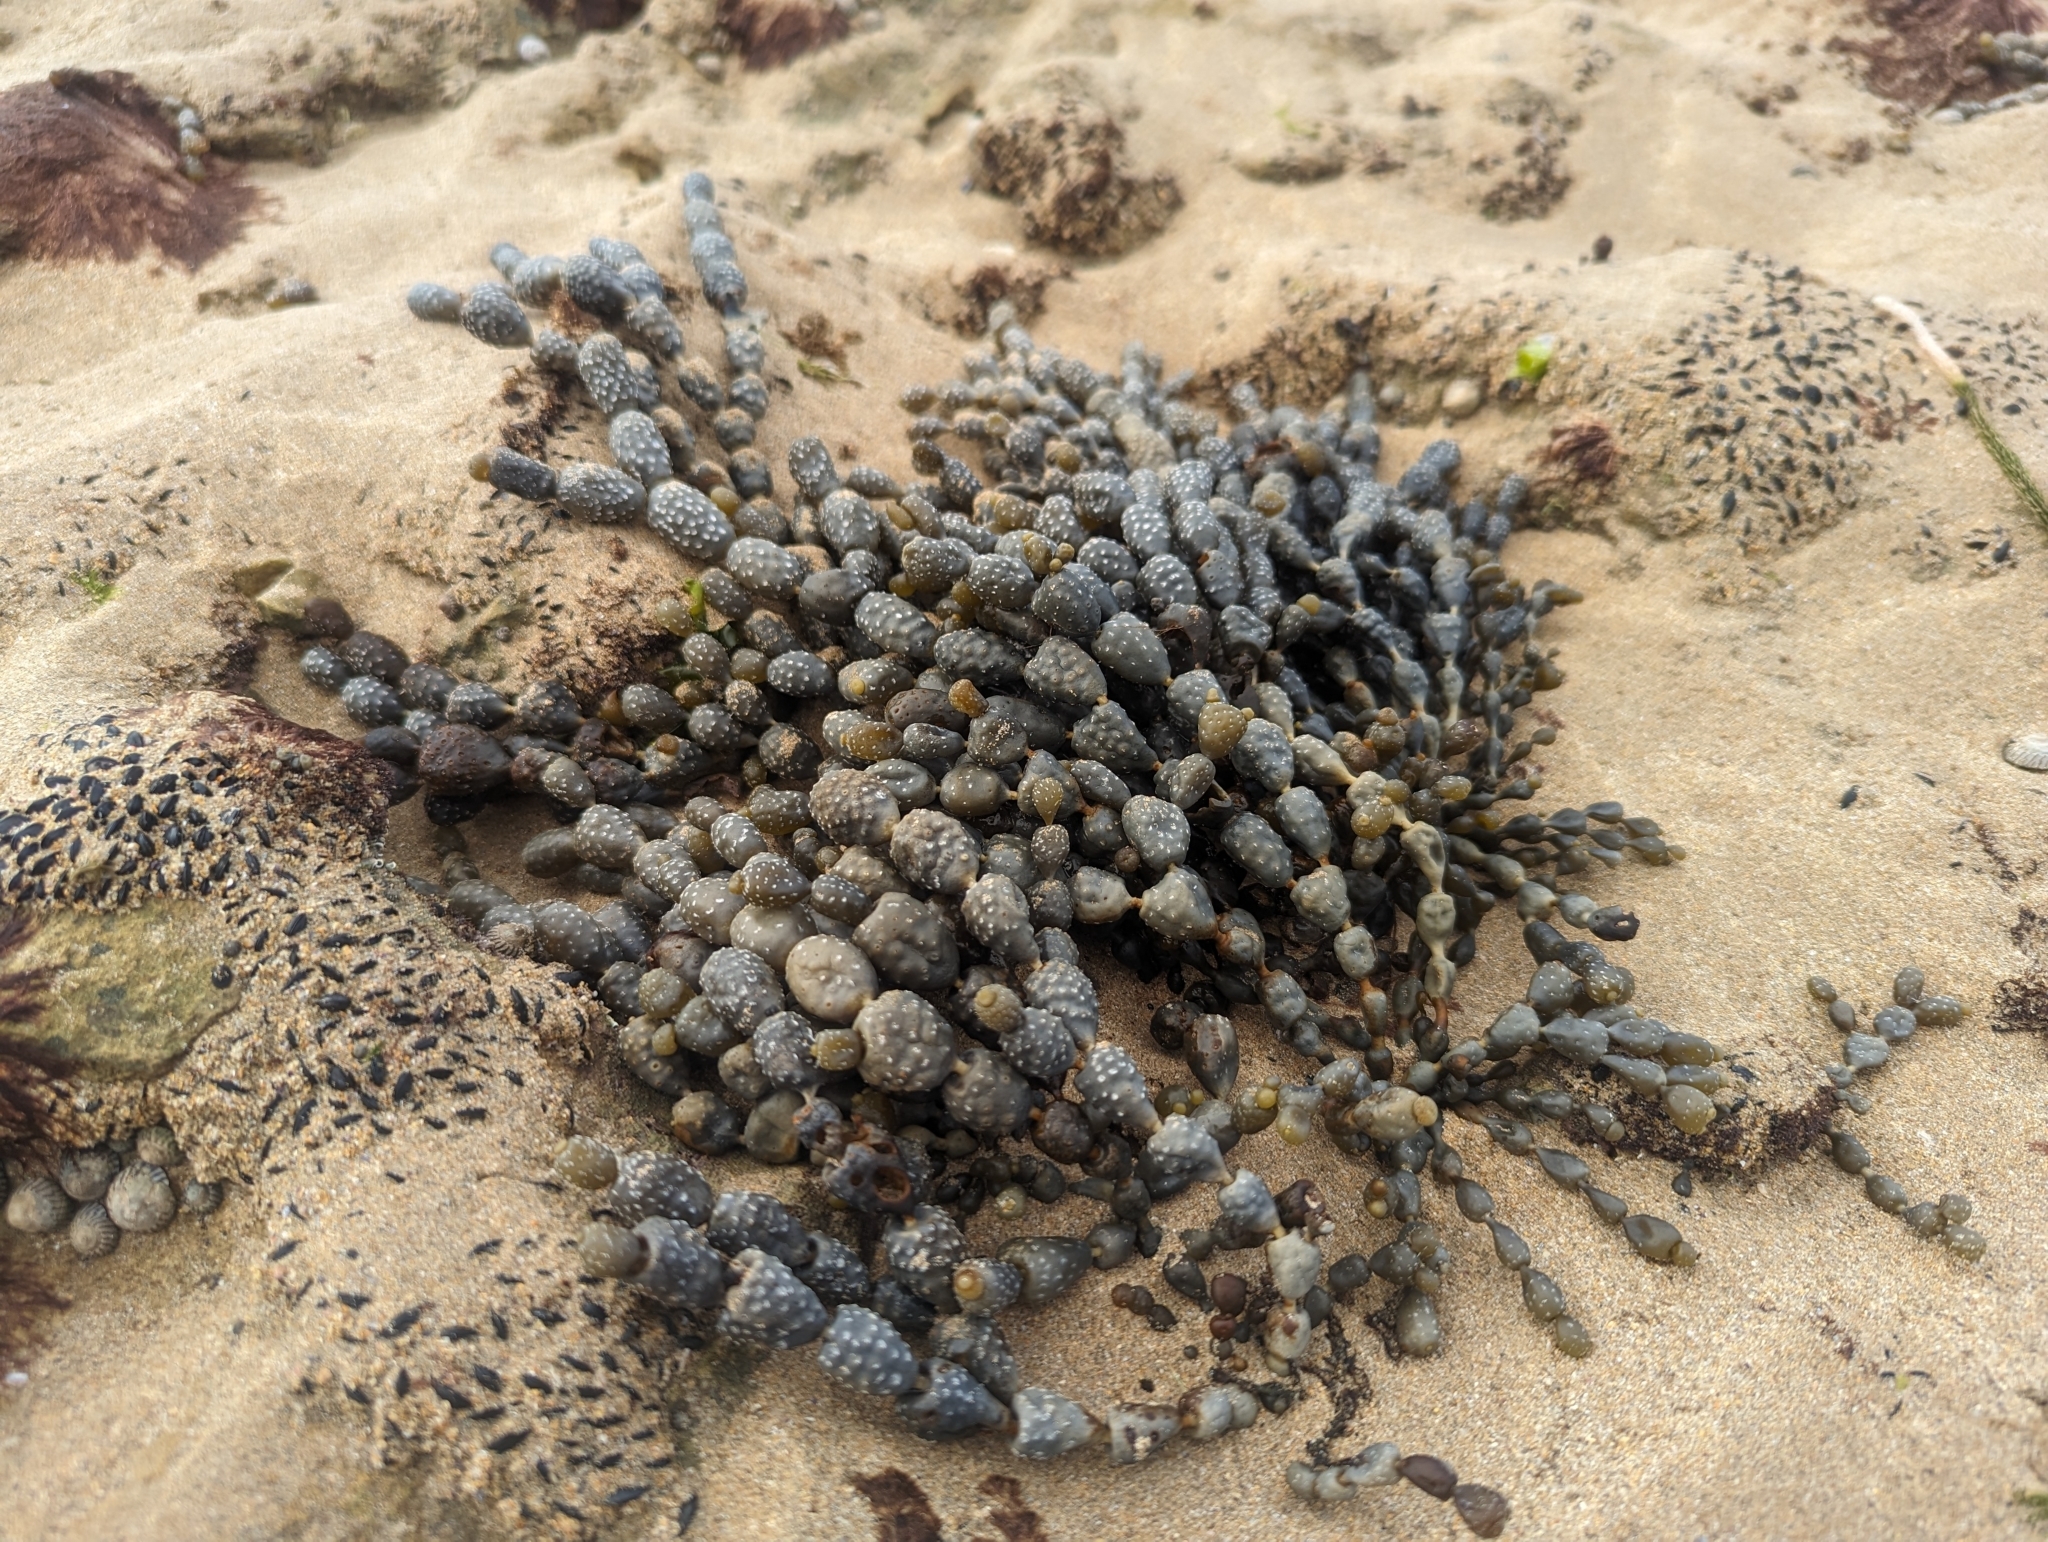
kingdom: Chromista
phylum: Ochrophyta
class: Phaeophyceae
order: Fucales
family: Hormosiraceae
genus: Hormosira
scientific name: Hormosira banksii
